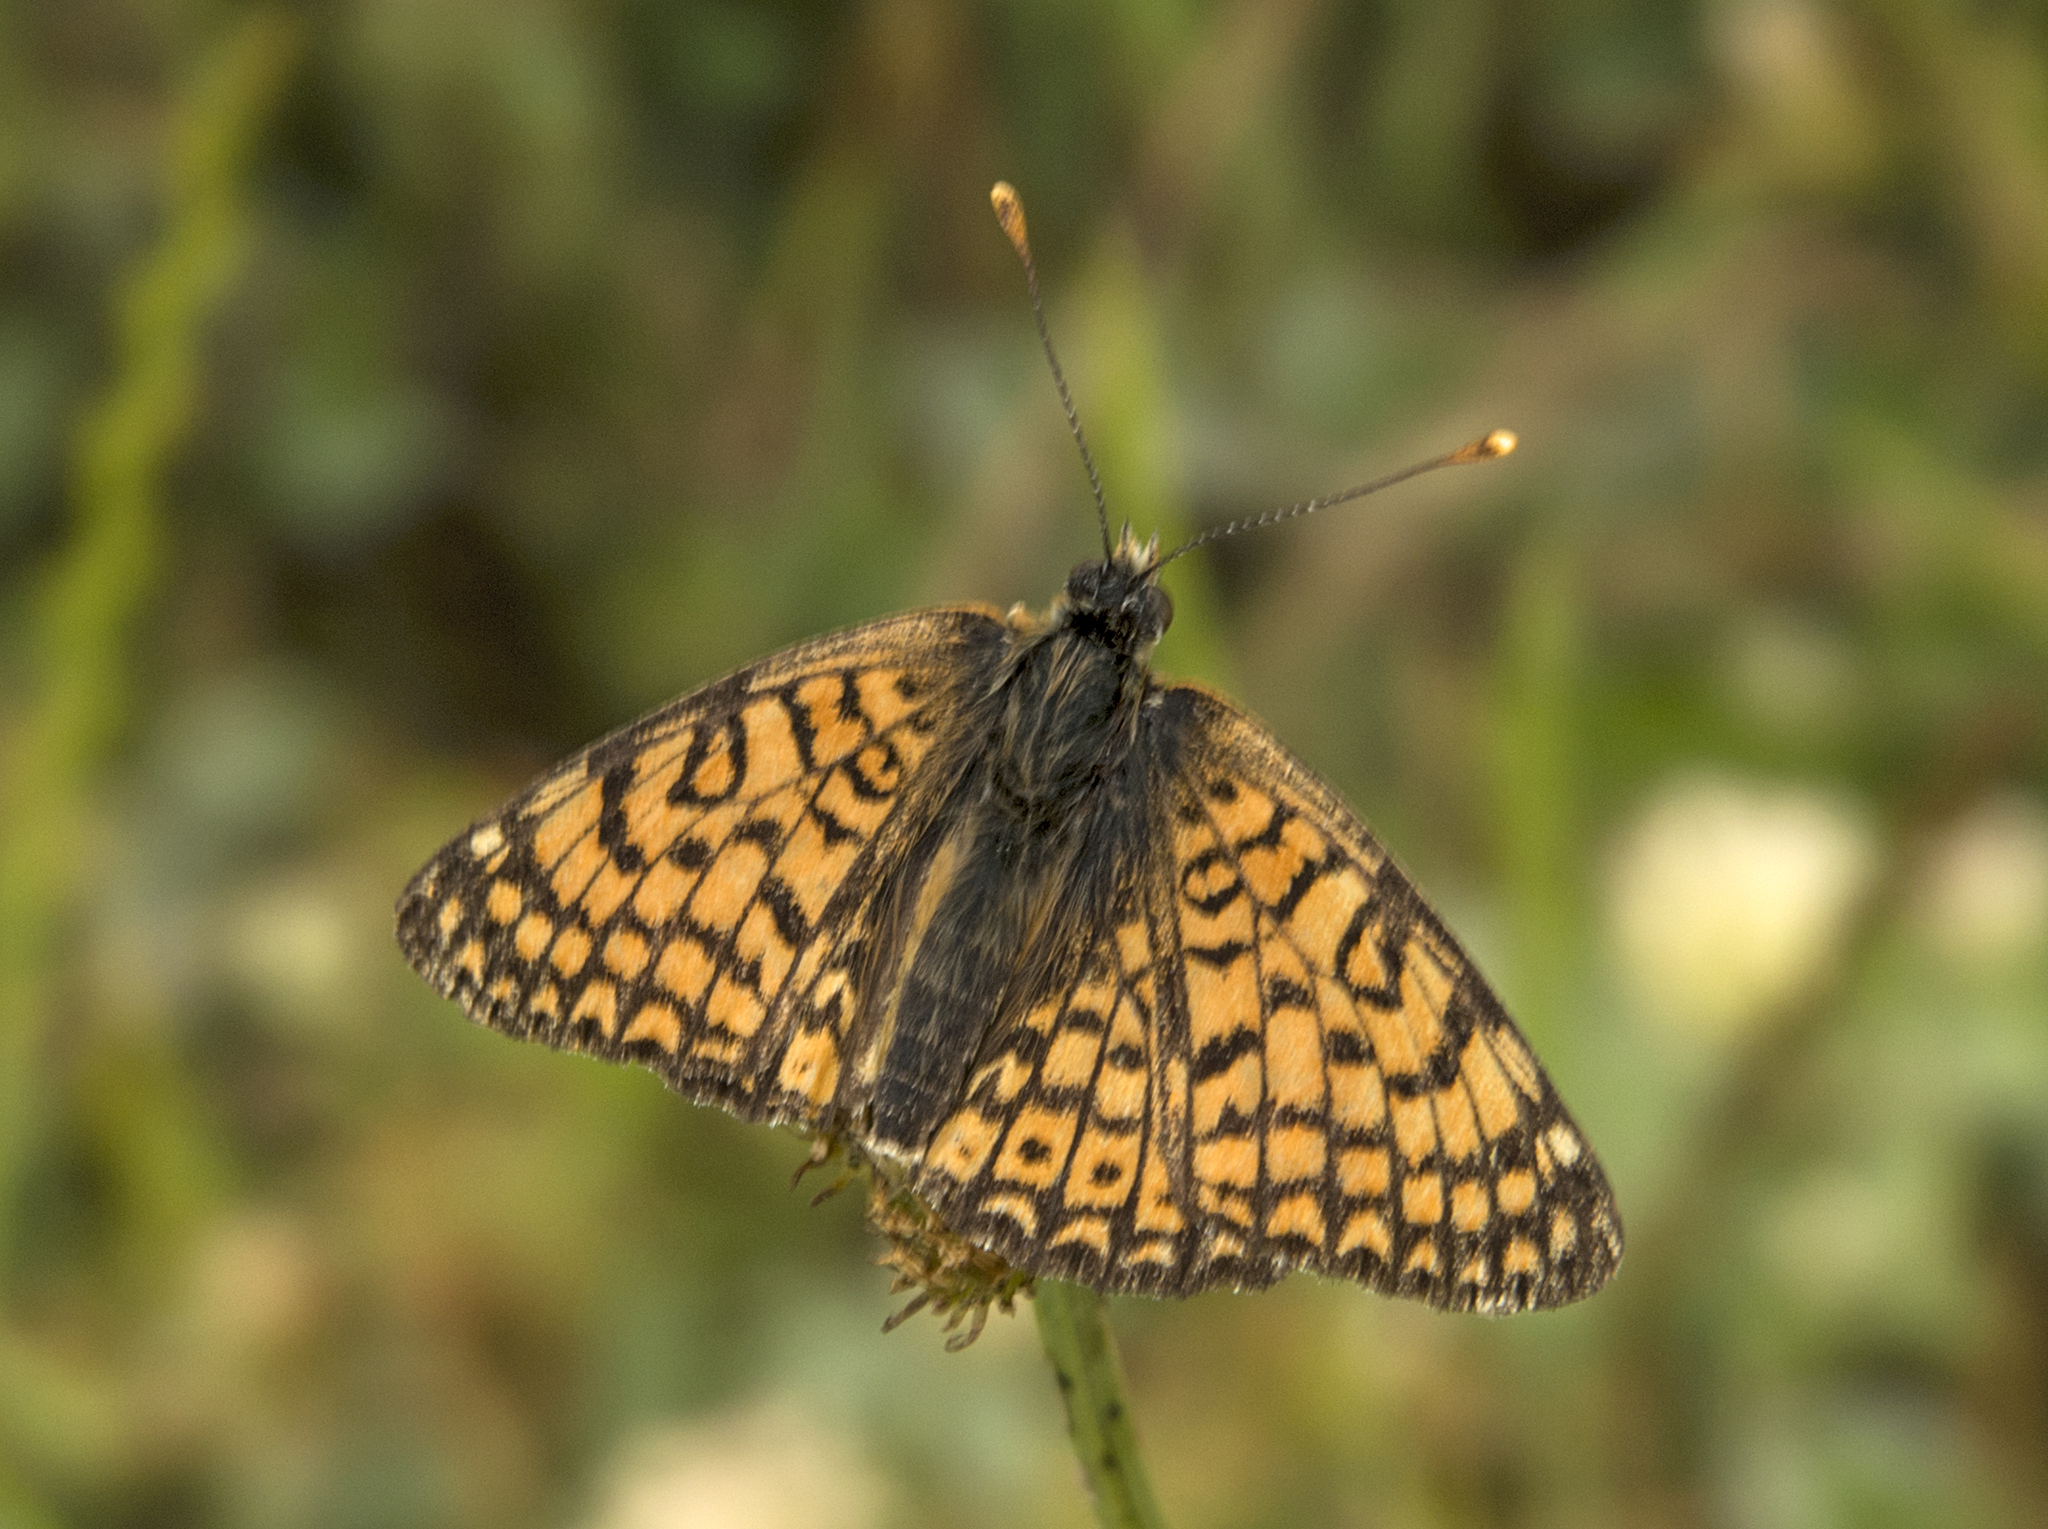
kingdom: Animalia
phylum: Arthropoda
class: Insecta
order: Lepidoptera
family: Nymphalidae
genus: Melitaea
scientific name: Melitaea cinxia
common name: Glanville fritillary
